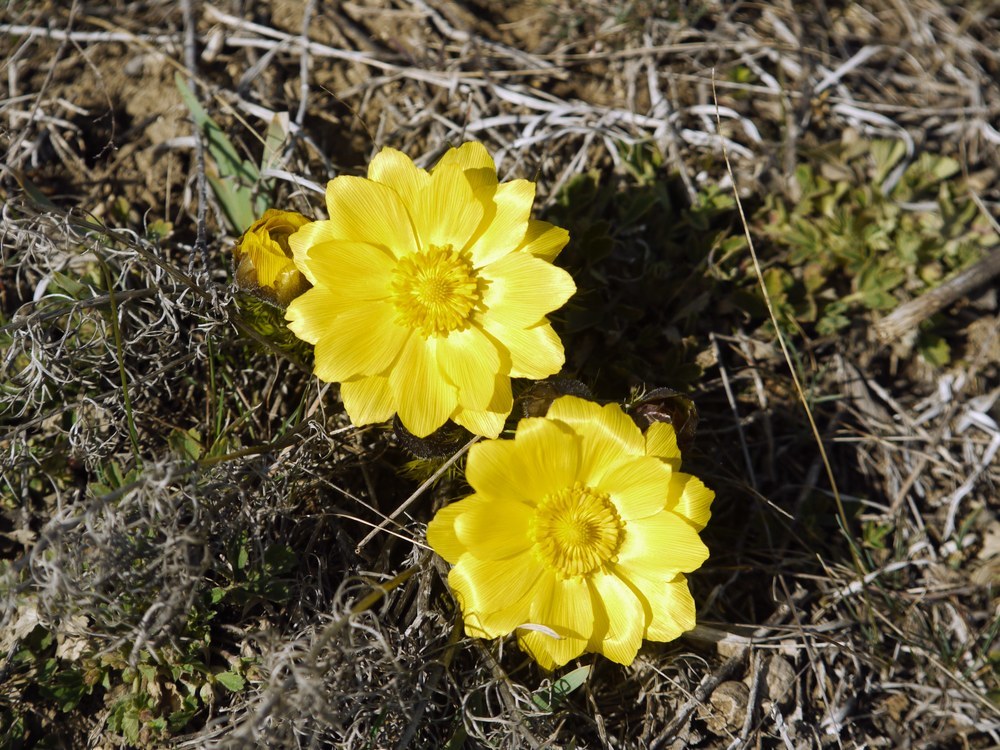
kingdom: Plantae
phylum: Tracheophyta
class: Magnoliopsida
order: Ranunculales
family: Ranunculaceae
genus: Adonis
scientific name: Adonis vernalis
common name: Yellow pheasants-eye
